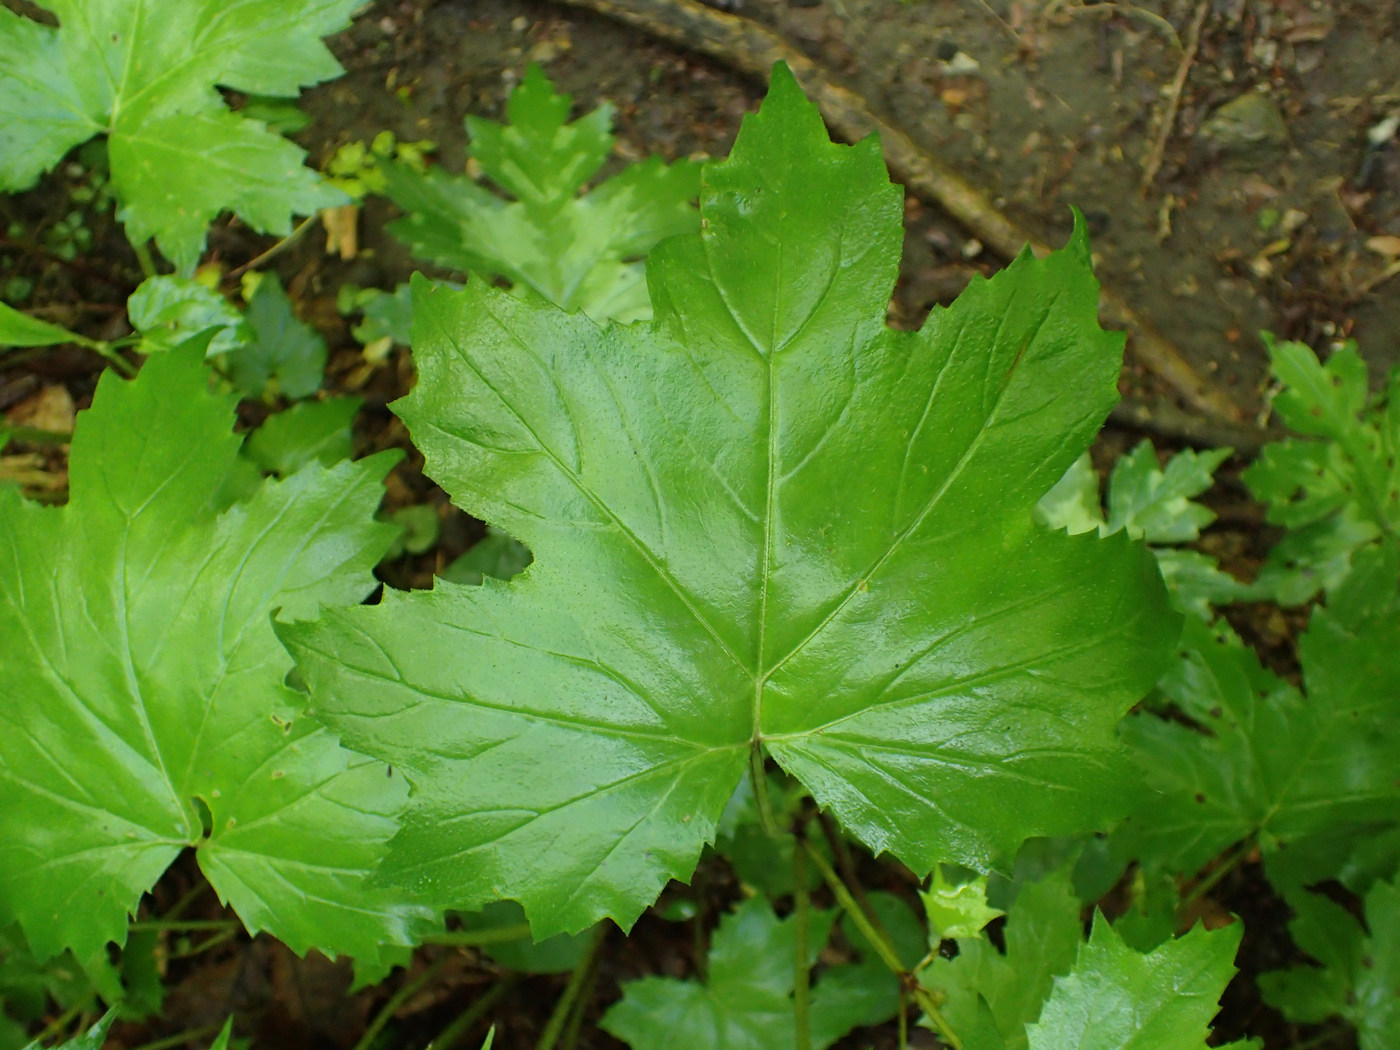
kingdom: Plantae
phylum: Tracheophyta
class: Magnoliopsida
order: Boraginales
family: Hydrophyllaceae
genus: Hydrophyllum
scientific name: Hydrophyllum canadense
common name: Canada waterleaf
